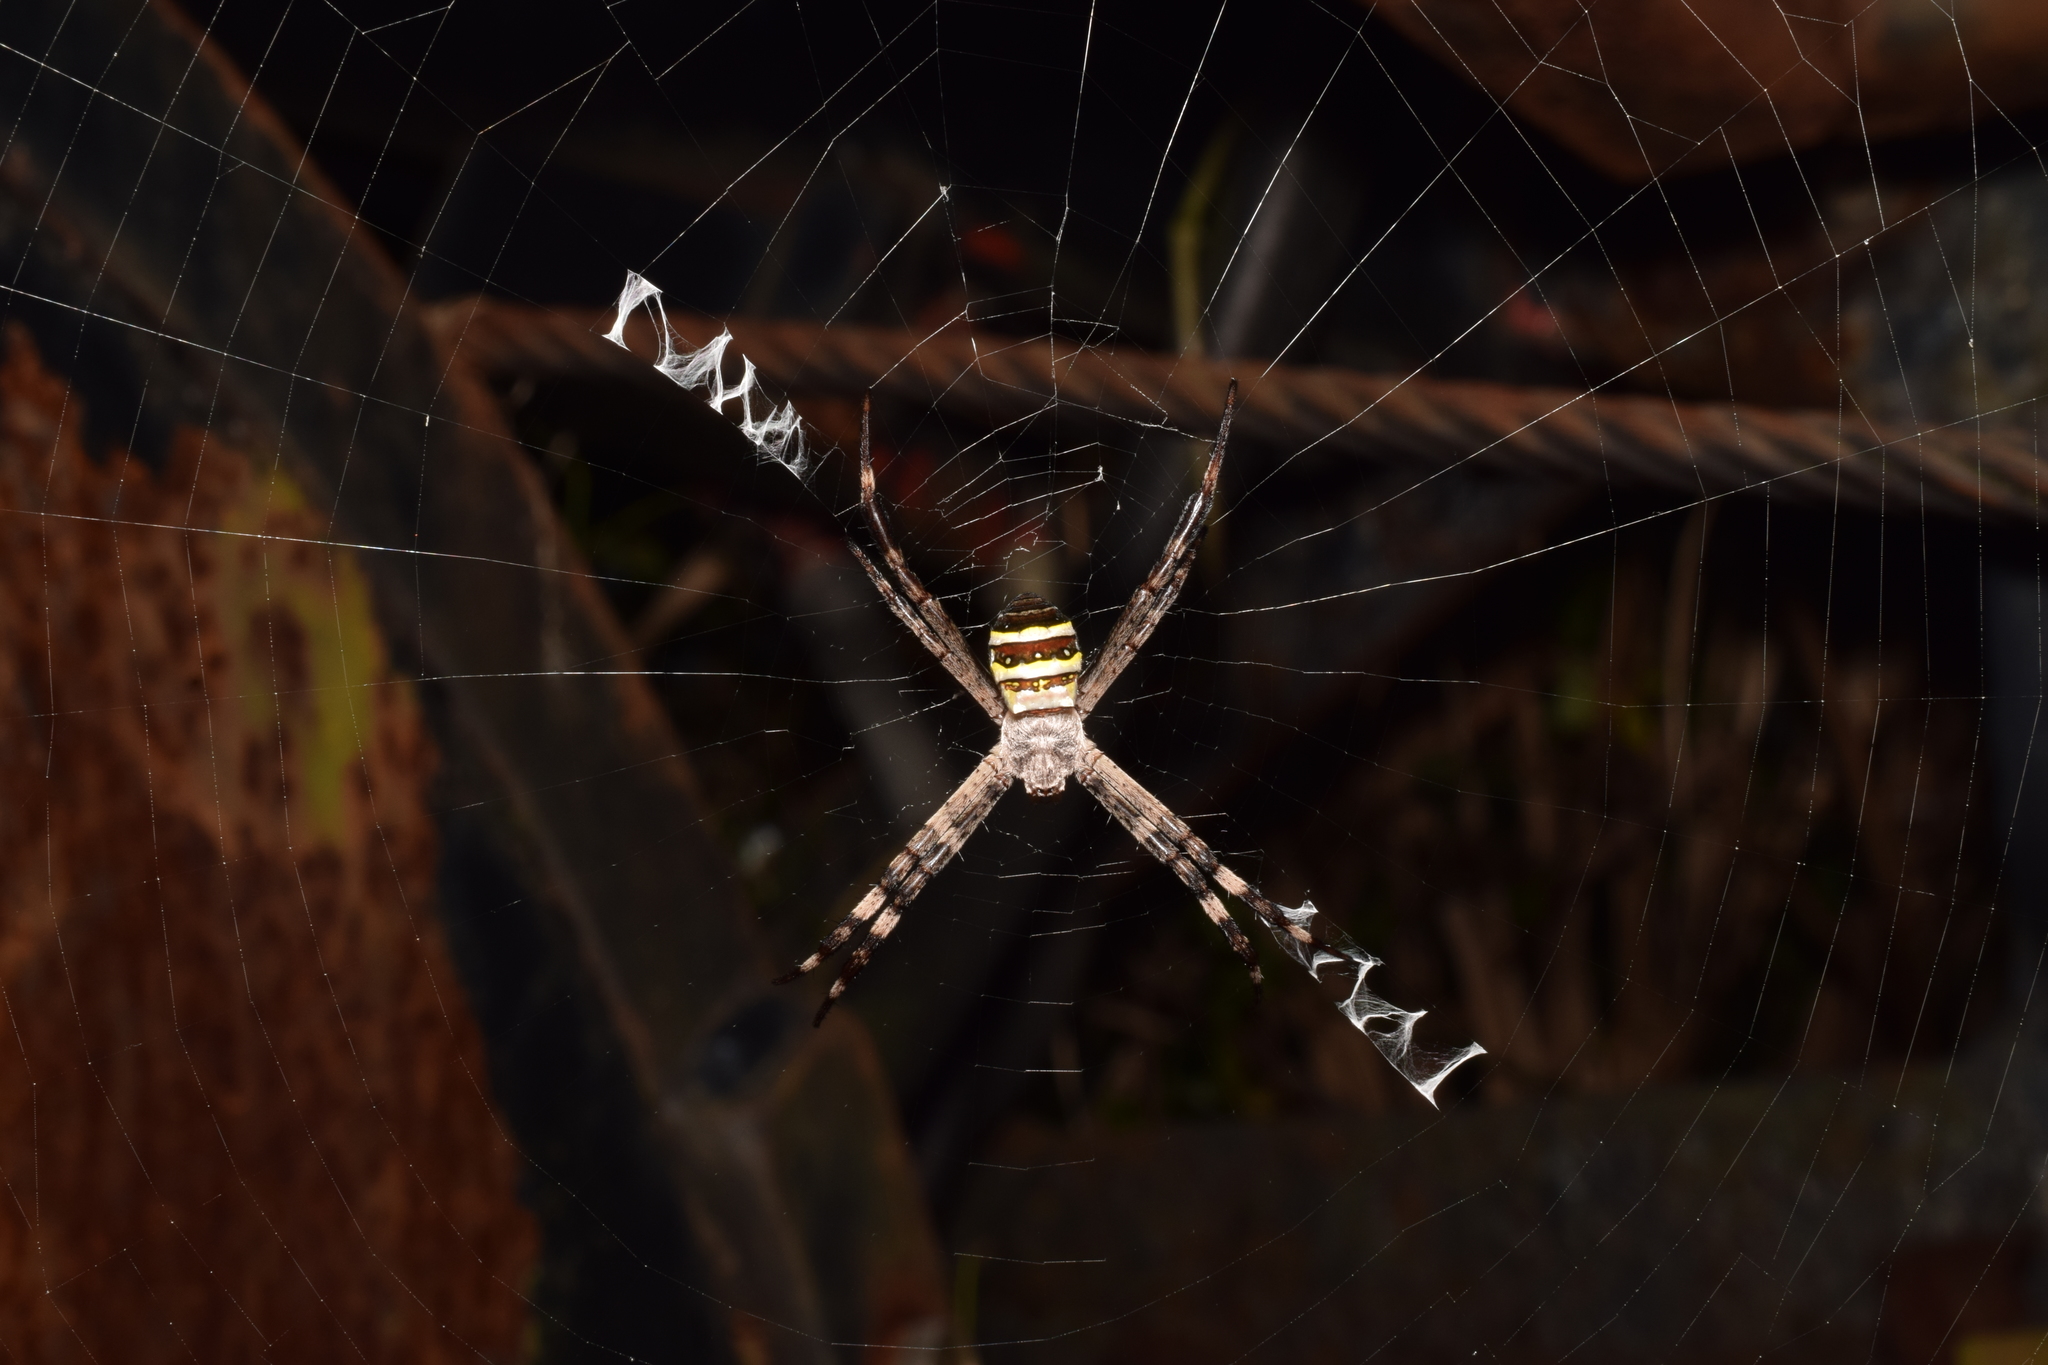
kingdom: Animalia
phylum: Arthropoda
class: Arachnida
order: Araneae
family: Araneidae
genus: Argiope
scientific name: Argiope amoena
